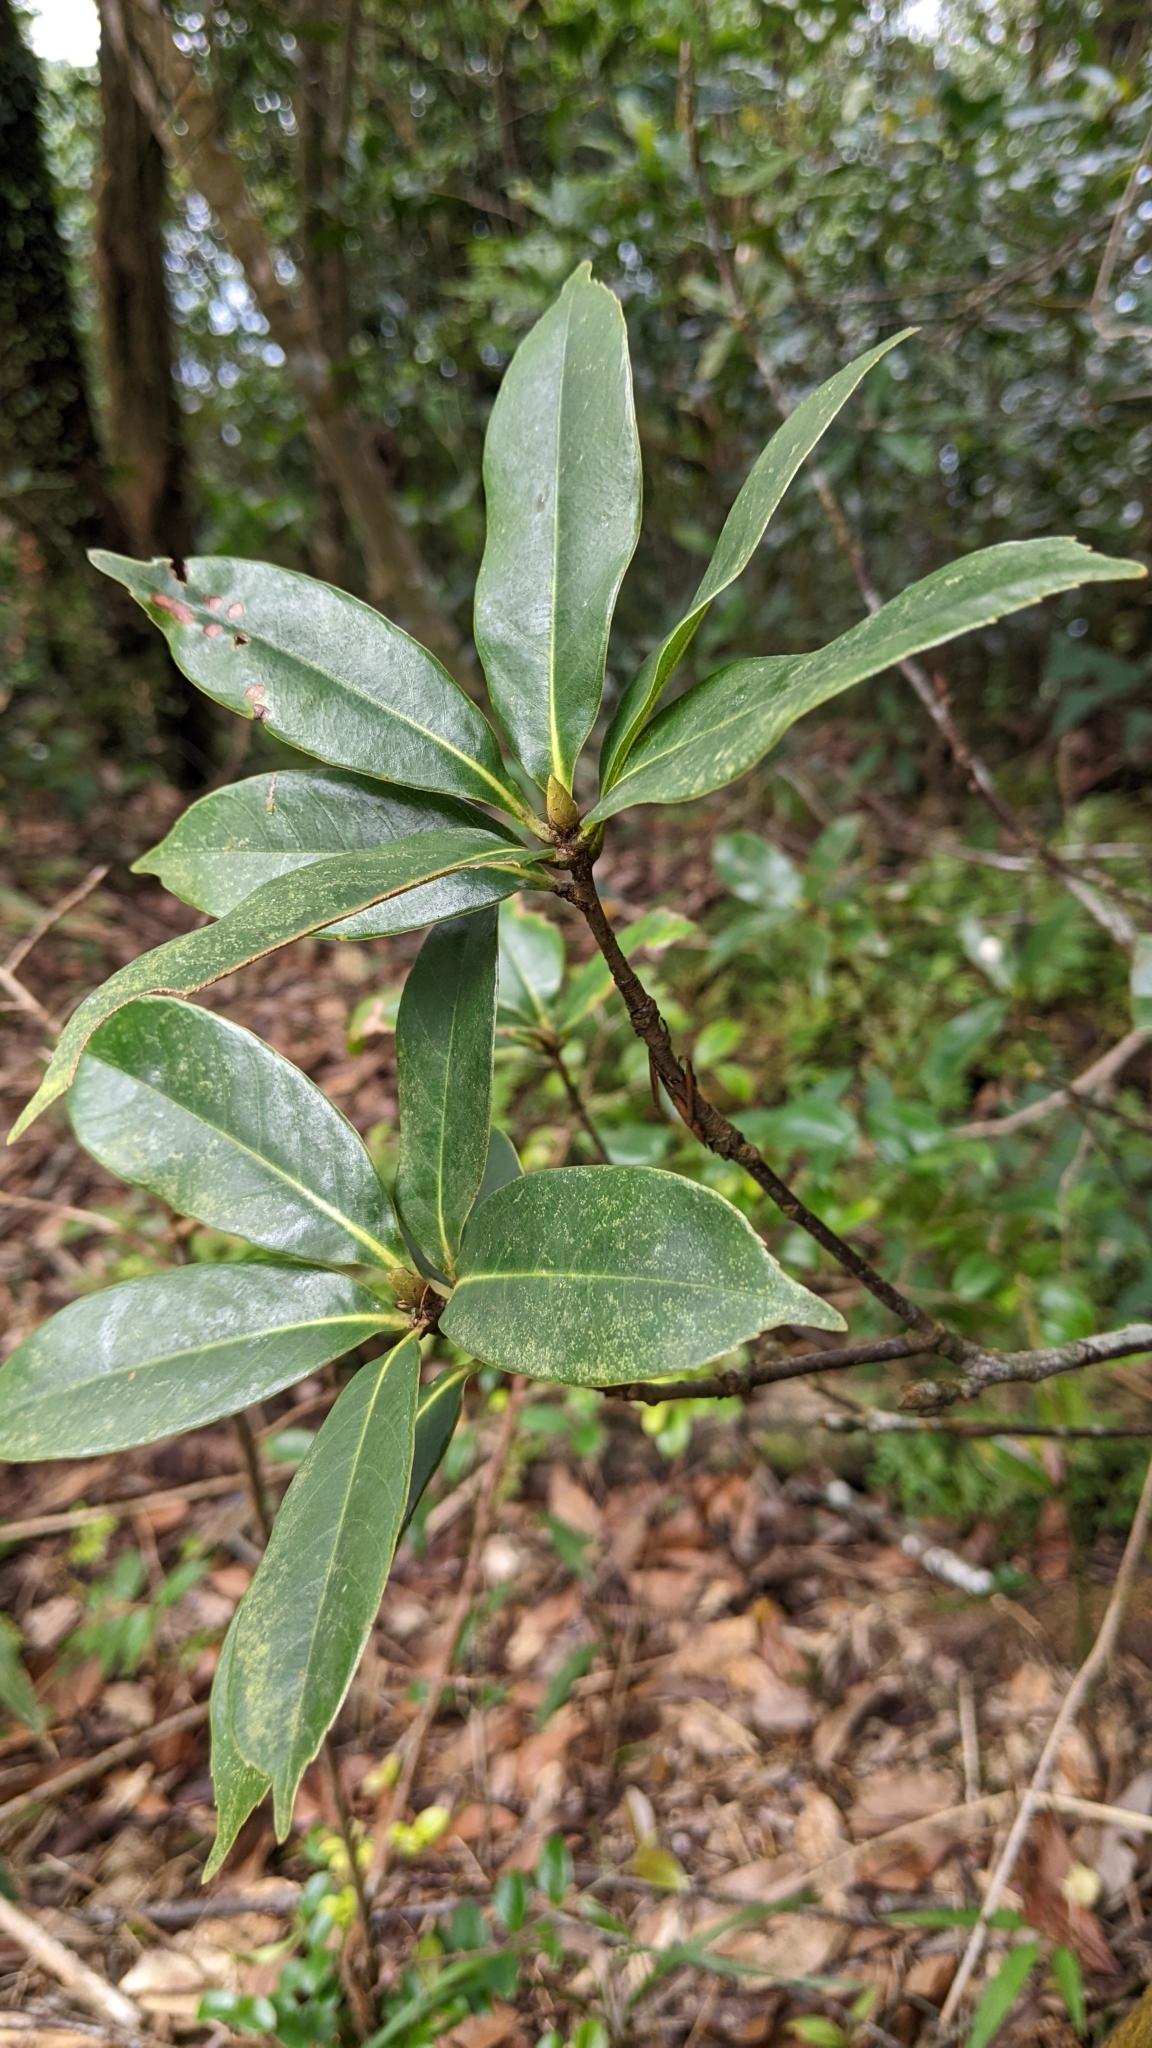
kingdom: Plantae
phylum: Tracheophyta
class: Magnoliopsida
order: Fagales
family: Fagaceae
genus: Quercus
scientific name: Quercus sessilifolia
